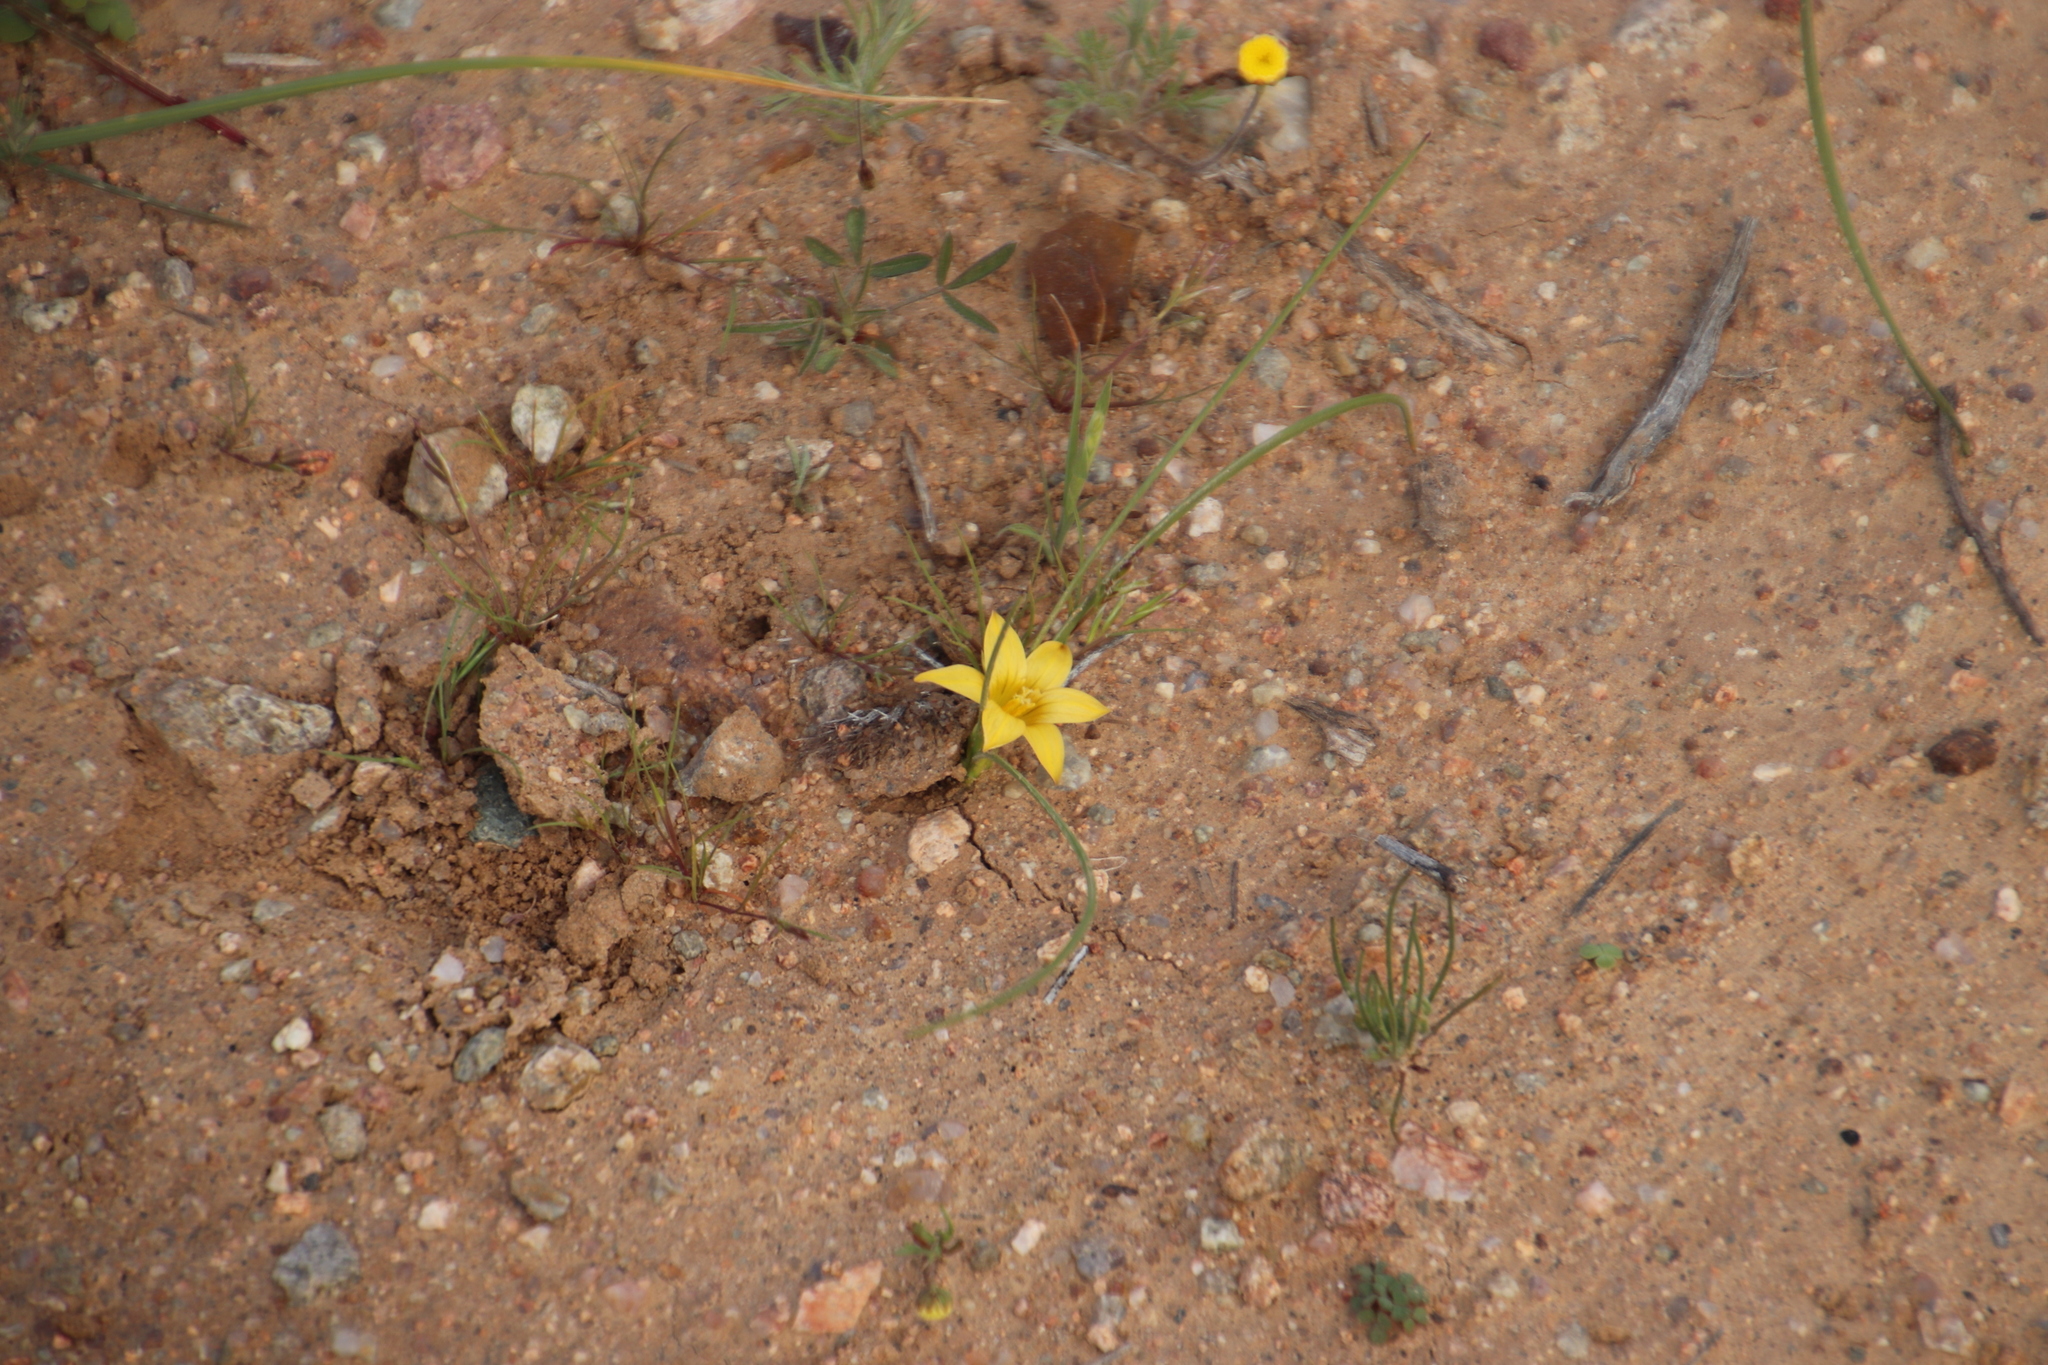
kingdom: Plantae
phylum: Tracheophyta
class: Liliopsida
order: Asparagales
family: Iridaceae
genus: Romulea
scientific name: Romulea citrina
